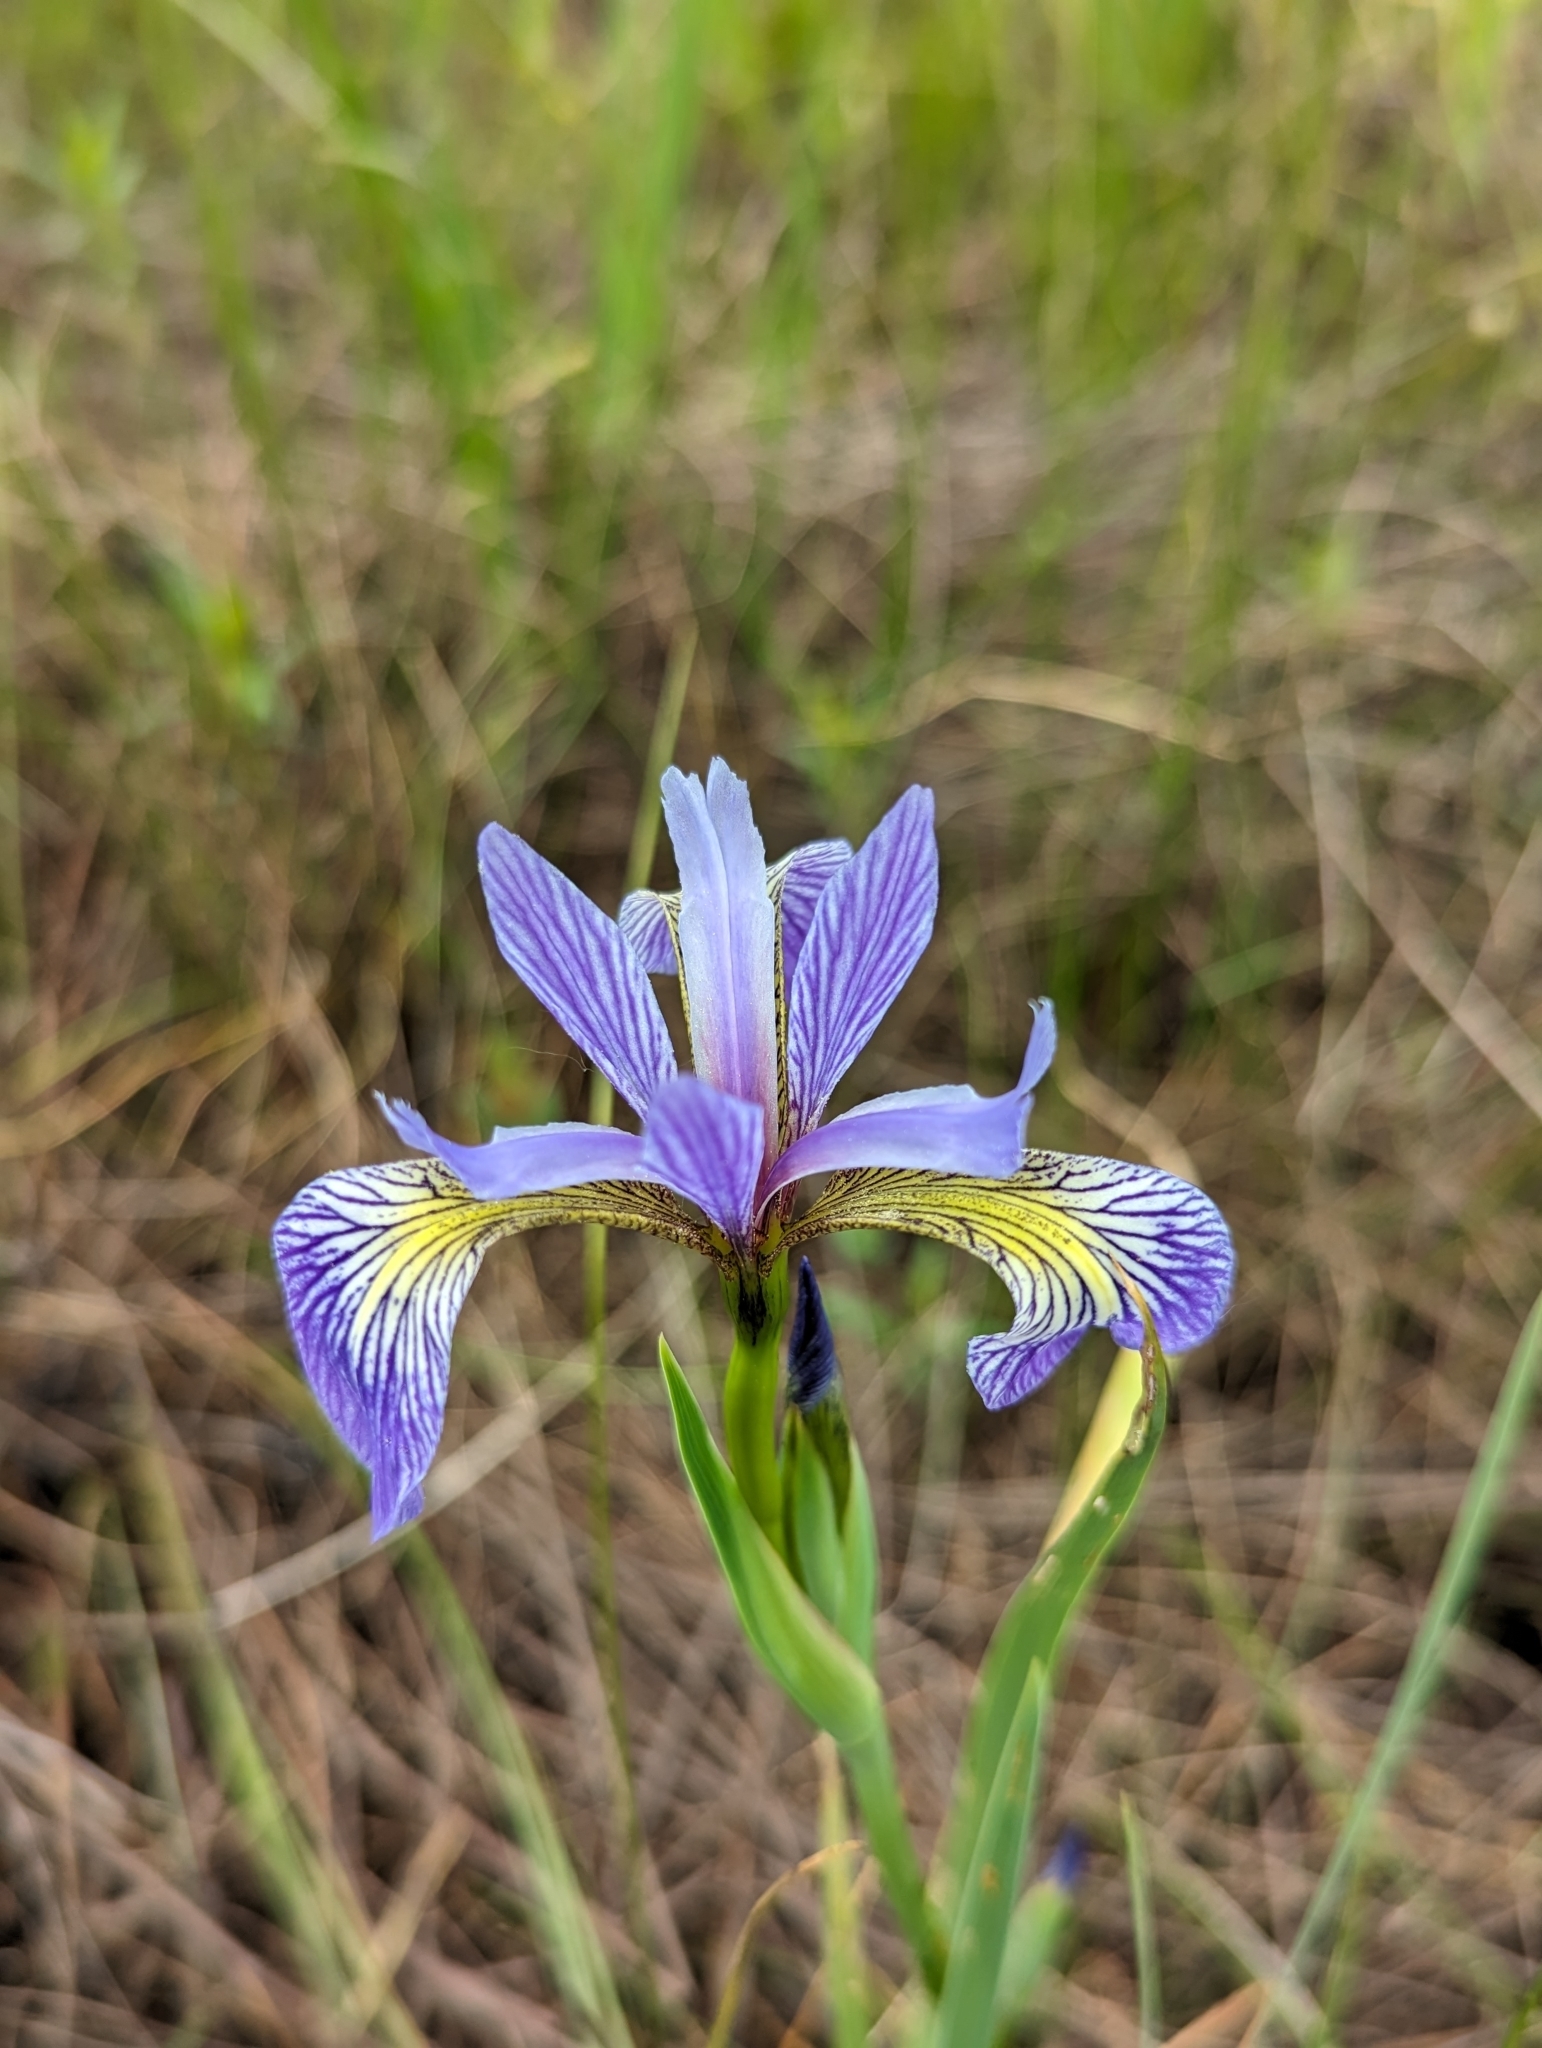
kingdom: Plantae
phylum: Tracheophyta
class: Liliopsida
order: Asparagales
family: Iridaceae
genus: Iris
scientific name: Iris versicolor
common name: Purple iris
